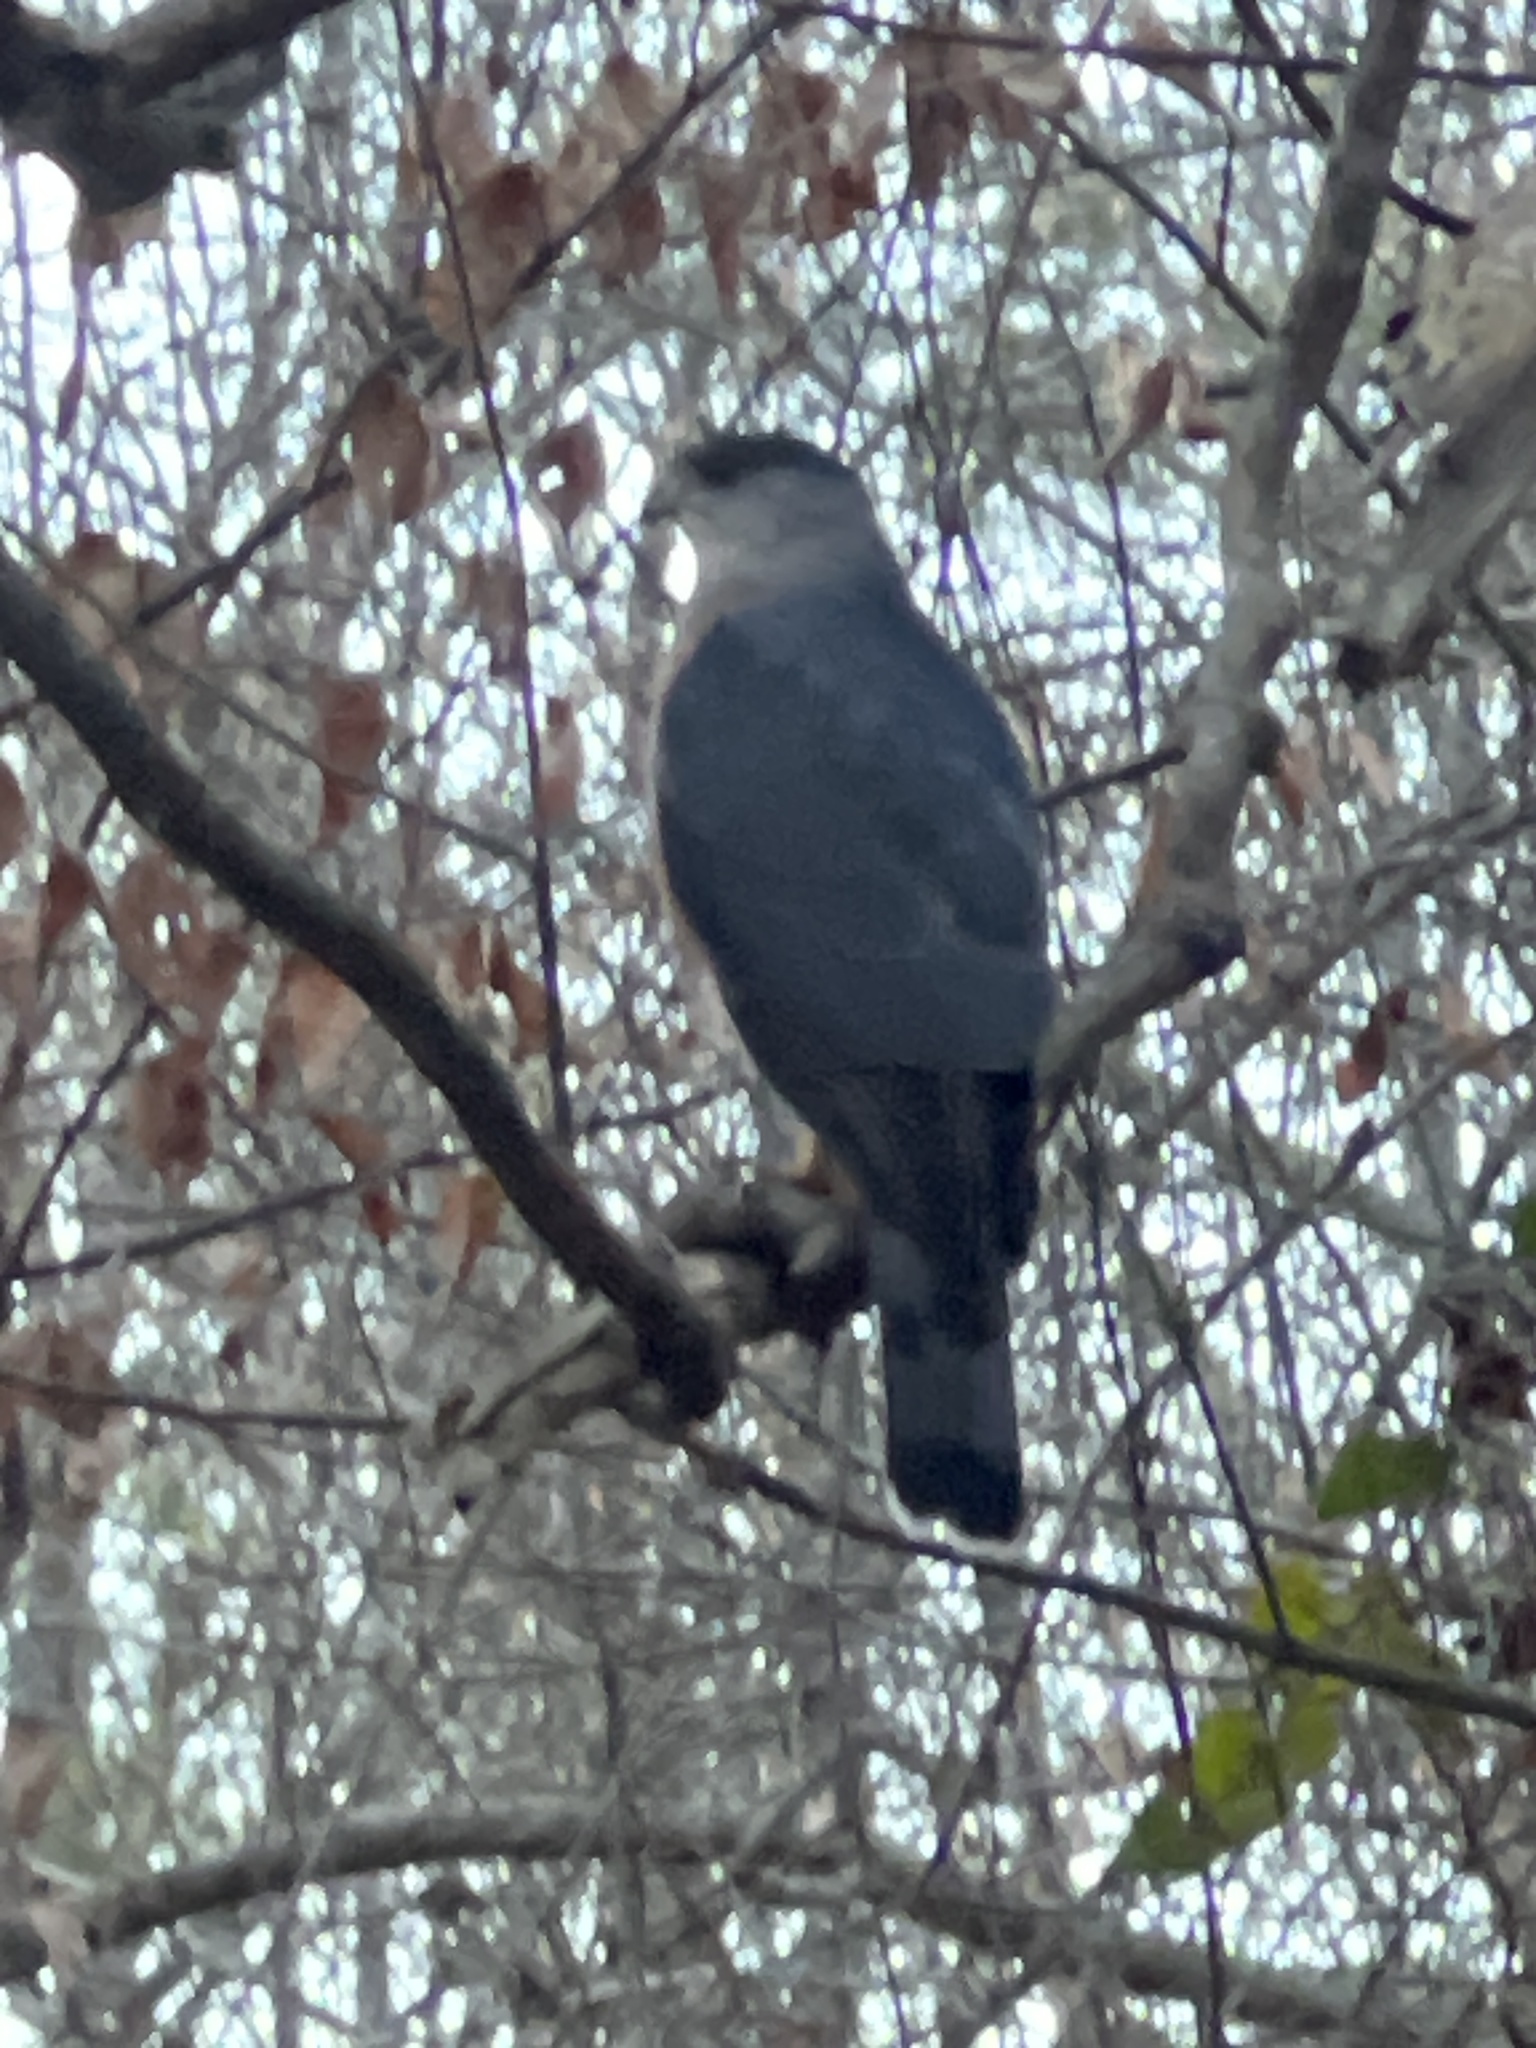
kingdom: Animalia
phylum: Chordata
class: Aves
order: Accipitriformes
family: Accipitridae
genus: Accipiter
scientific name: Accipiter cooperii
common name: Cooper's hawk
